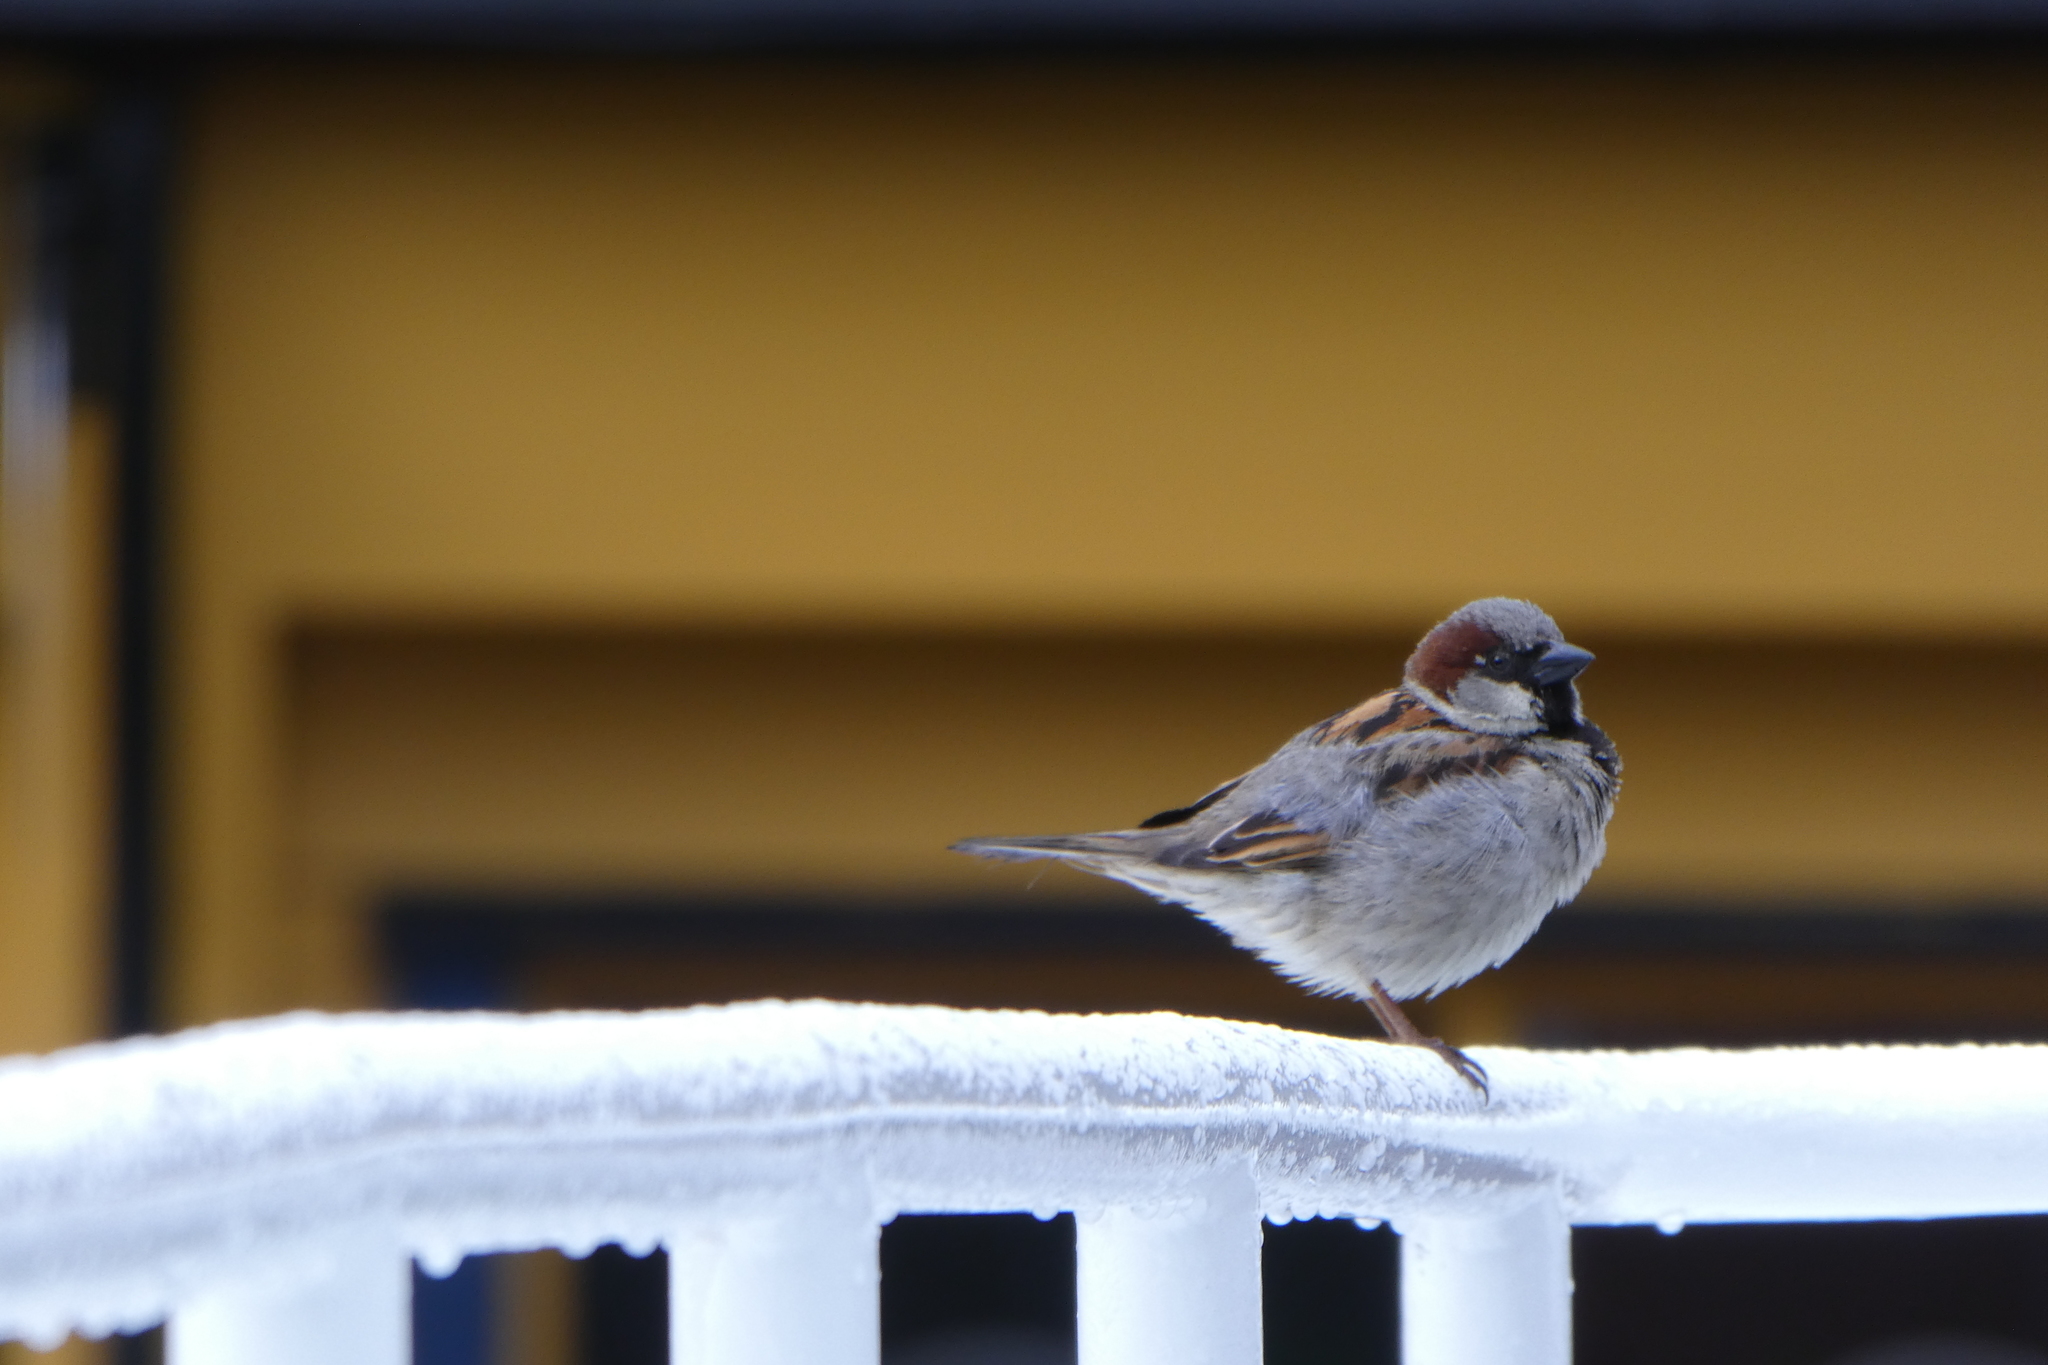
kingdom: Animalia
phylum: Chordata
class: Aves
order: Passeriformes
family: Passeridae
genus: Passer
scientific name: Passer domesticus
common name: House sparrow
